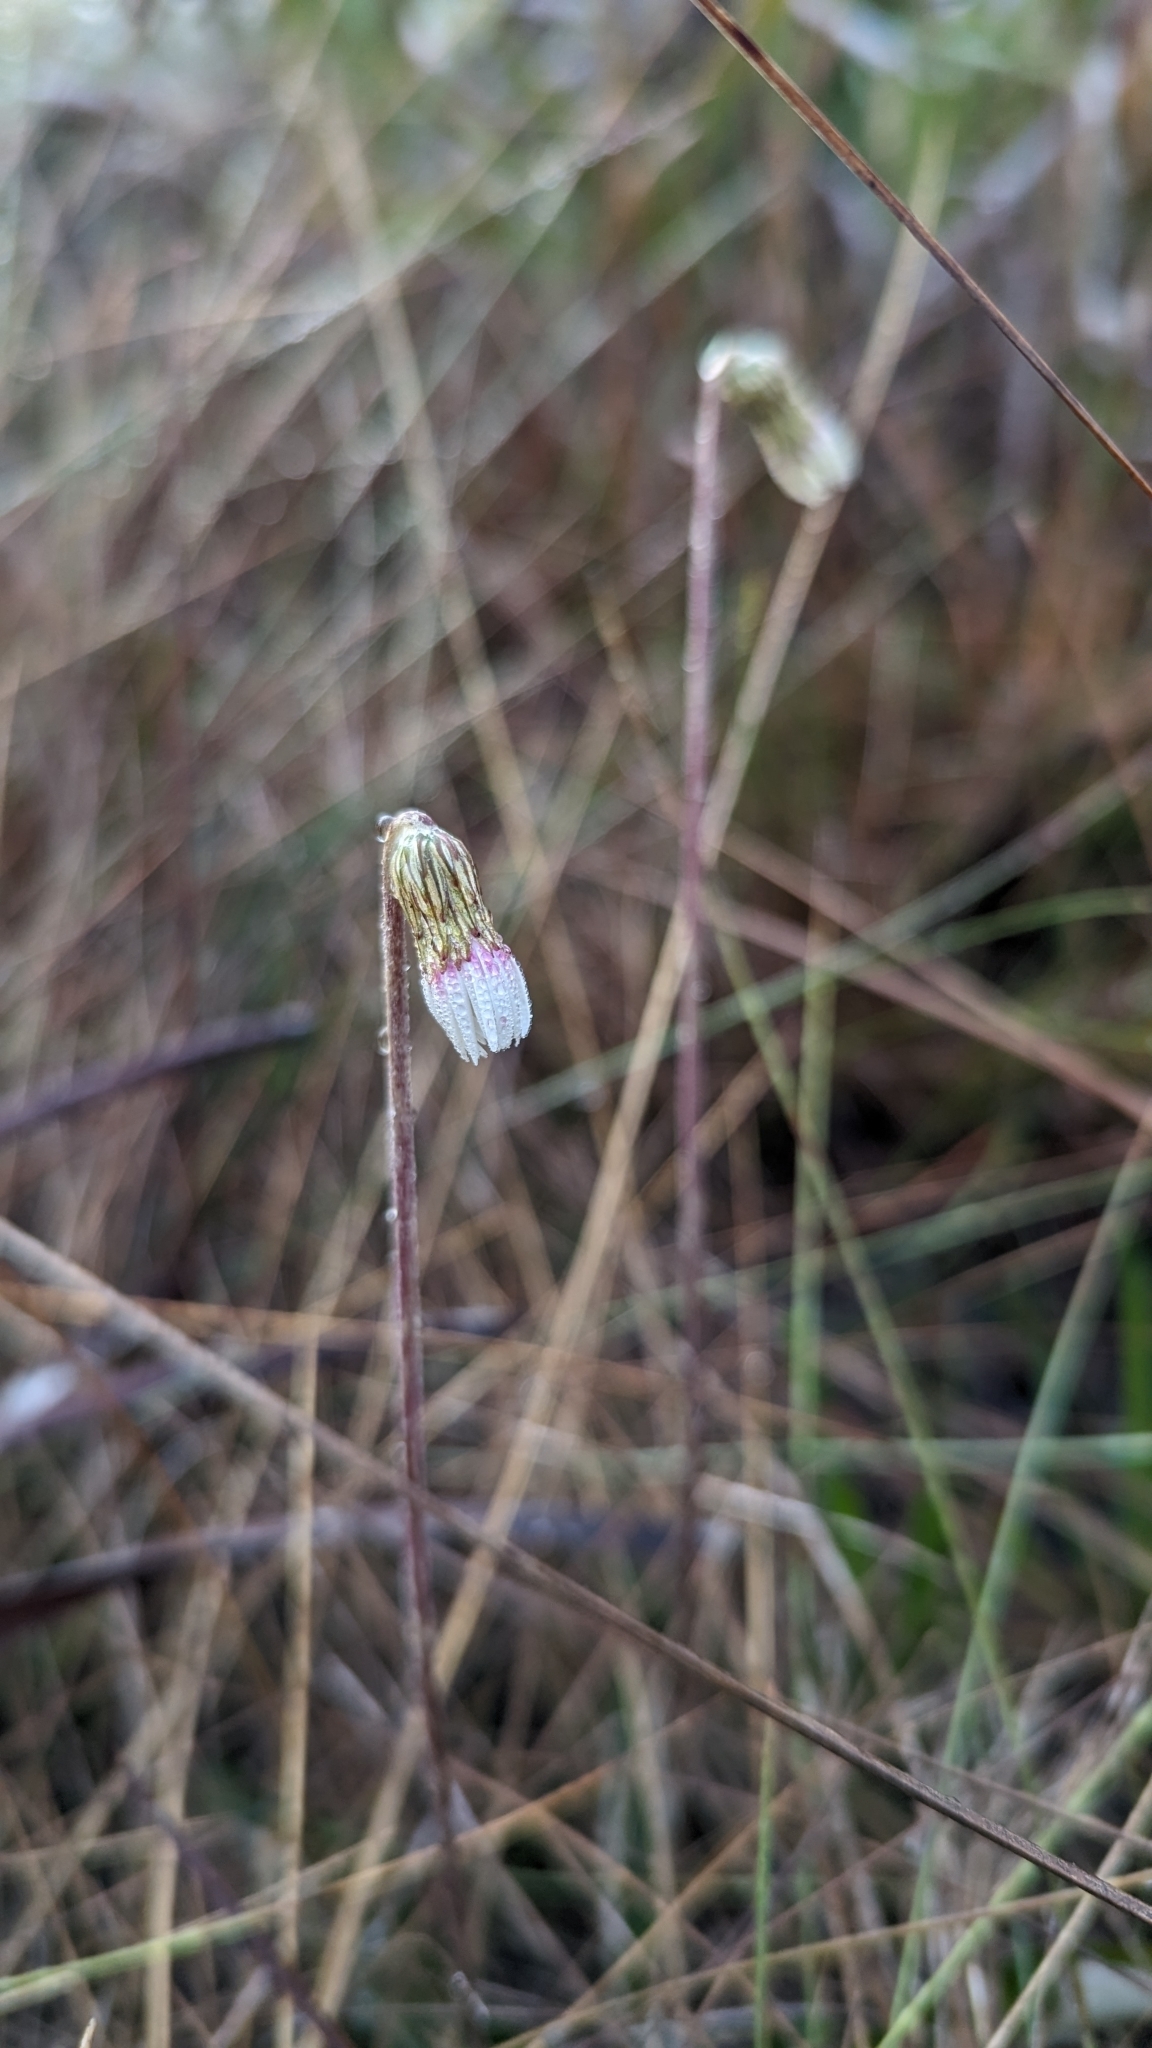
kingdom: Plantae
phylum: Tracheophyta
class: Magnoliopsida
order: Asterales
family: Asteraceae
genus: Chaptalia
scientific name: Chaptalia tomentosa
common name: Woolly sunbonnet
